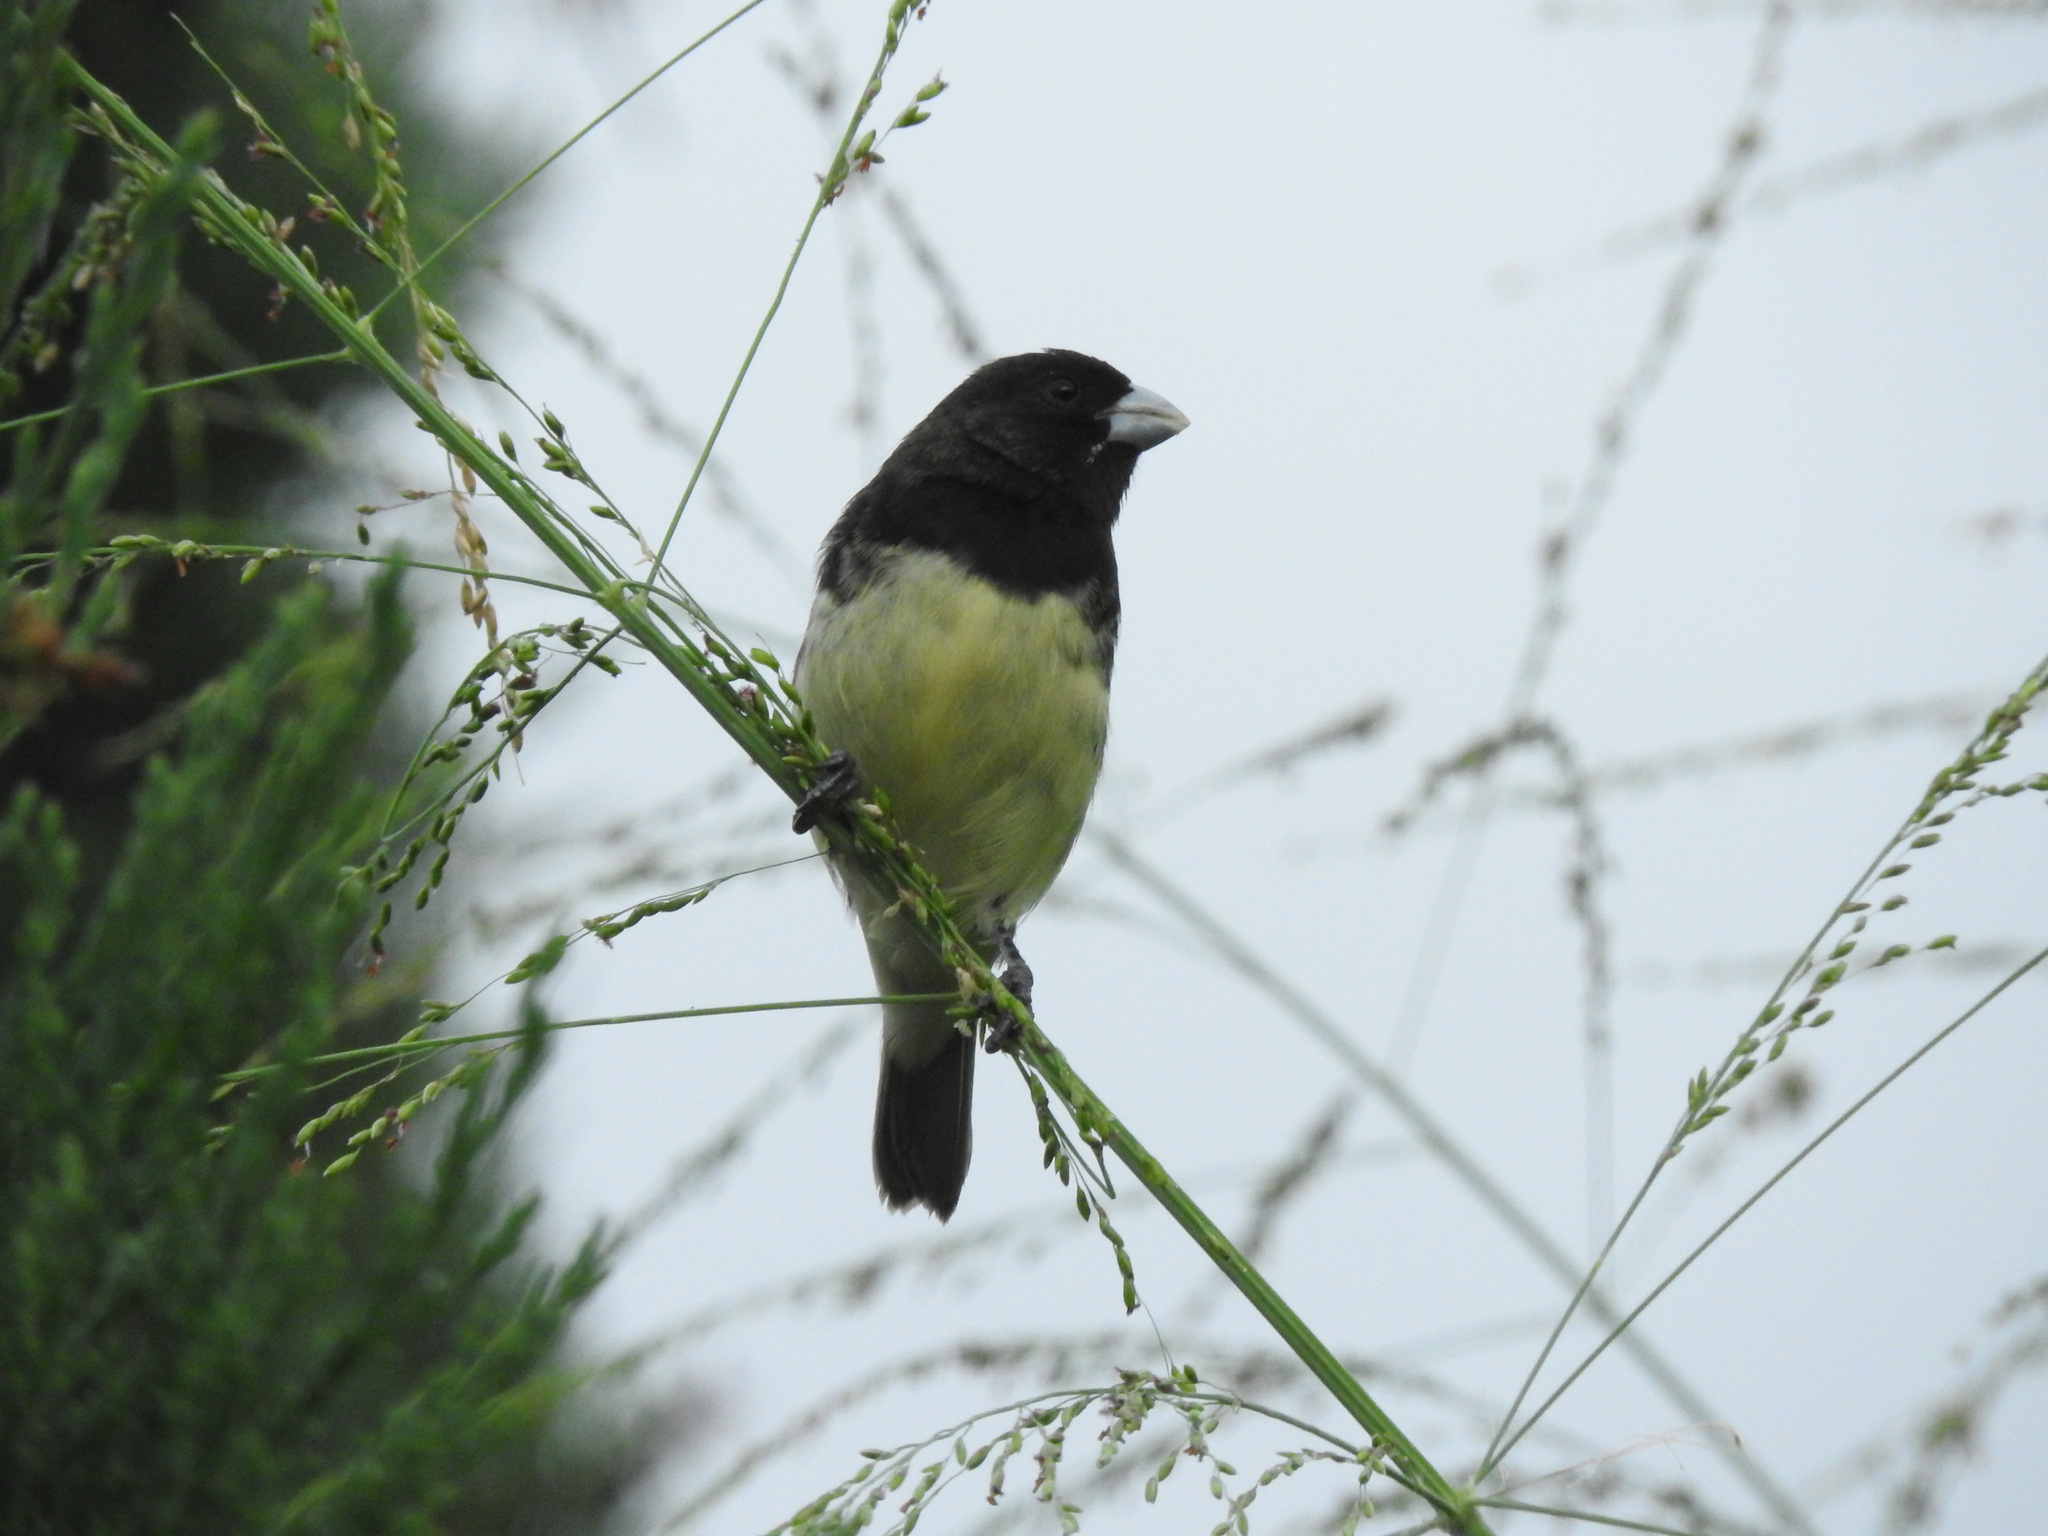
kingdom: Animalia
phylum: Chordata
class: Aves
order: Passeriformes
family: Thraupidae
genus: Sporophila
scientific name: Sporophila nigricollis
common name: Yellow-bellied seedeater
